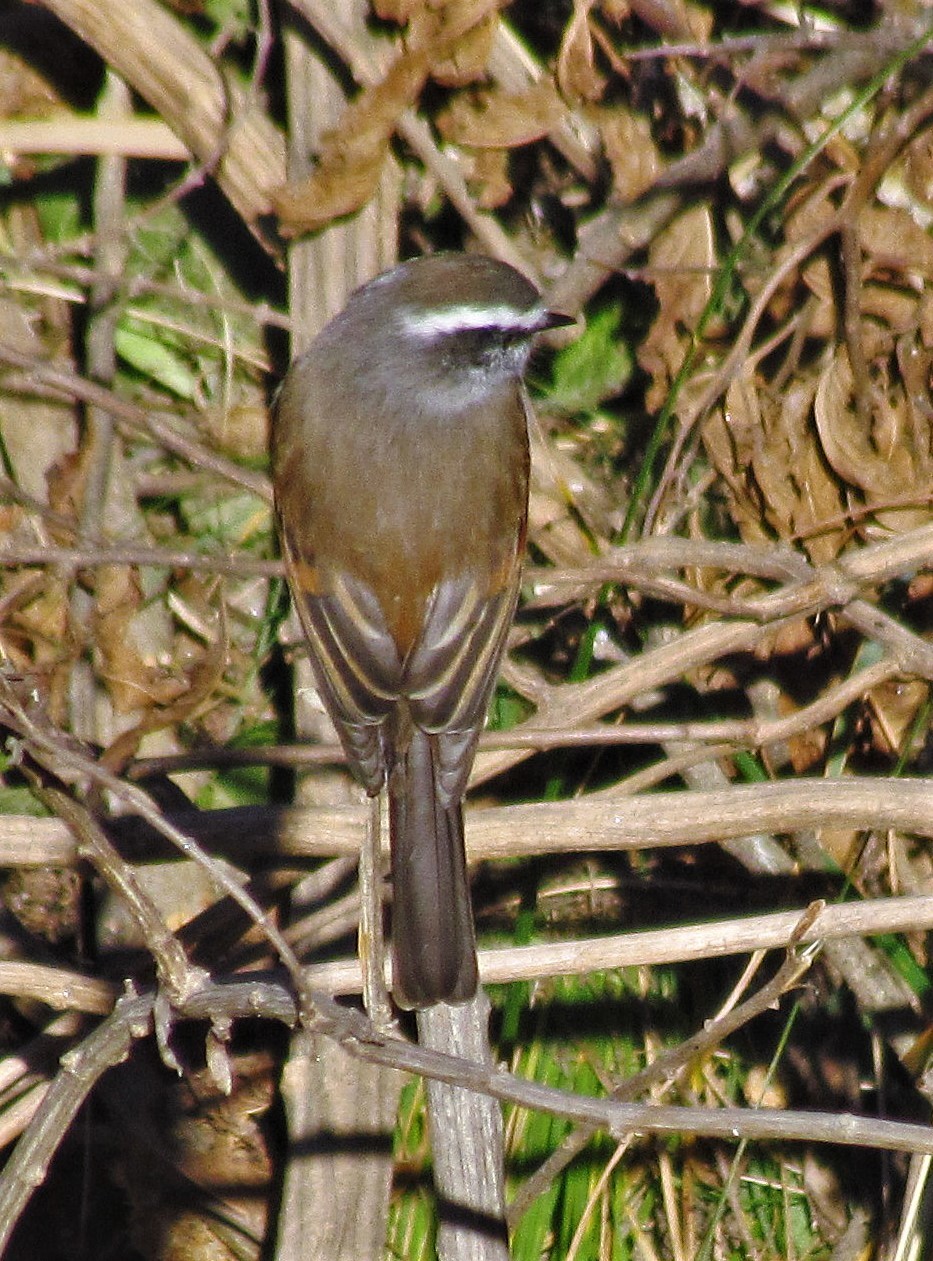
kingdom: Animalia
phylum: Chordata
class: Aves
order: Passeriformes
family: Tyrannidae
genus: Ochthoeca
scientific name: Ochthoeca leucophrys
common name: White-browed chat-tyrant
